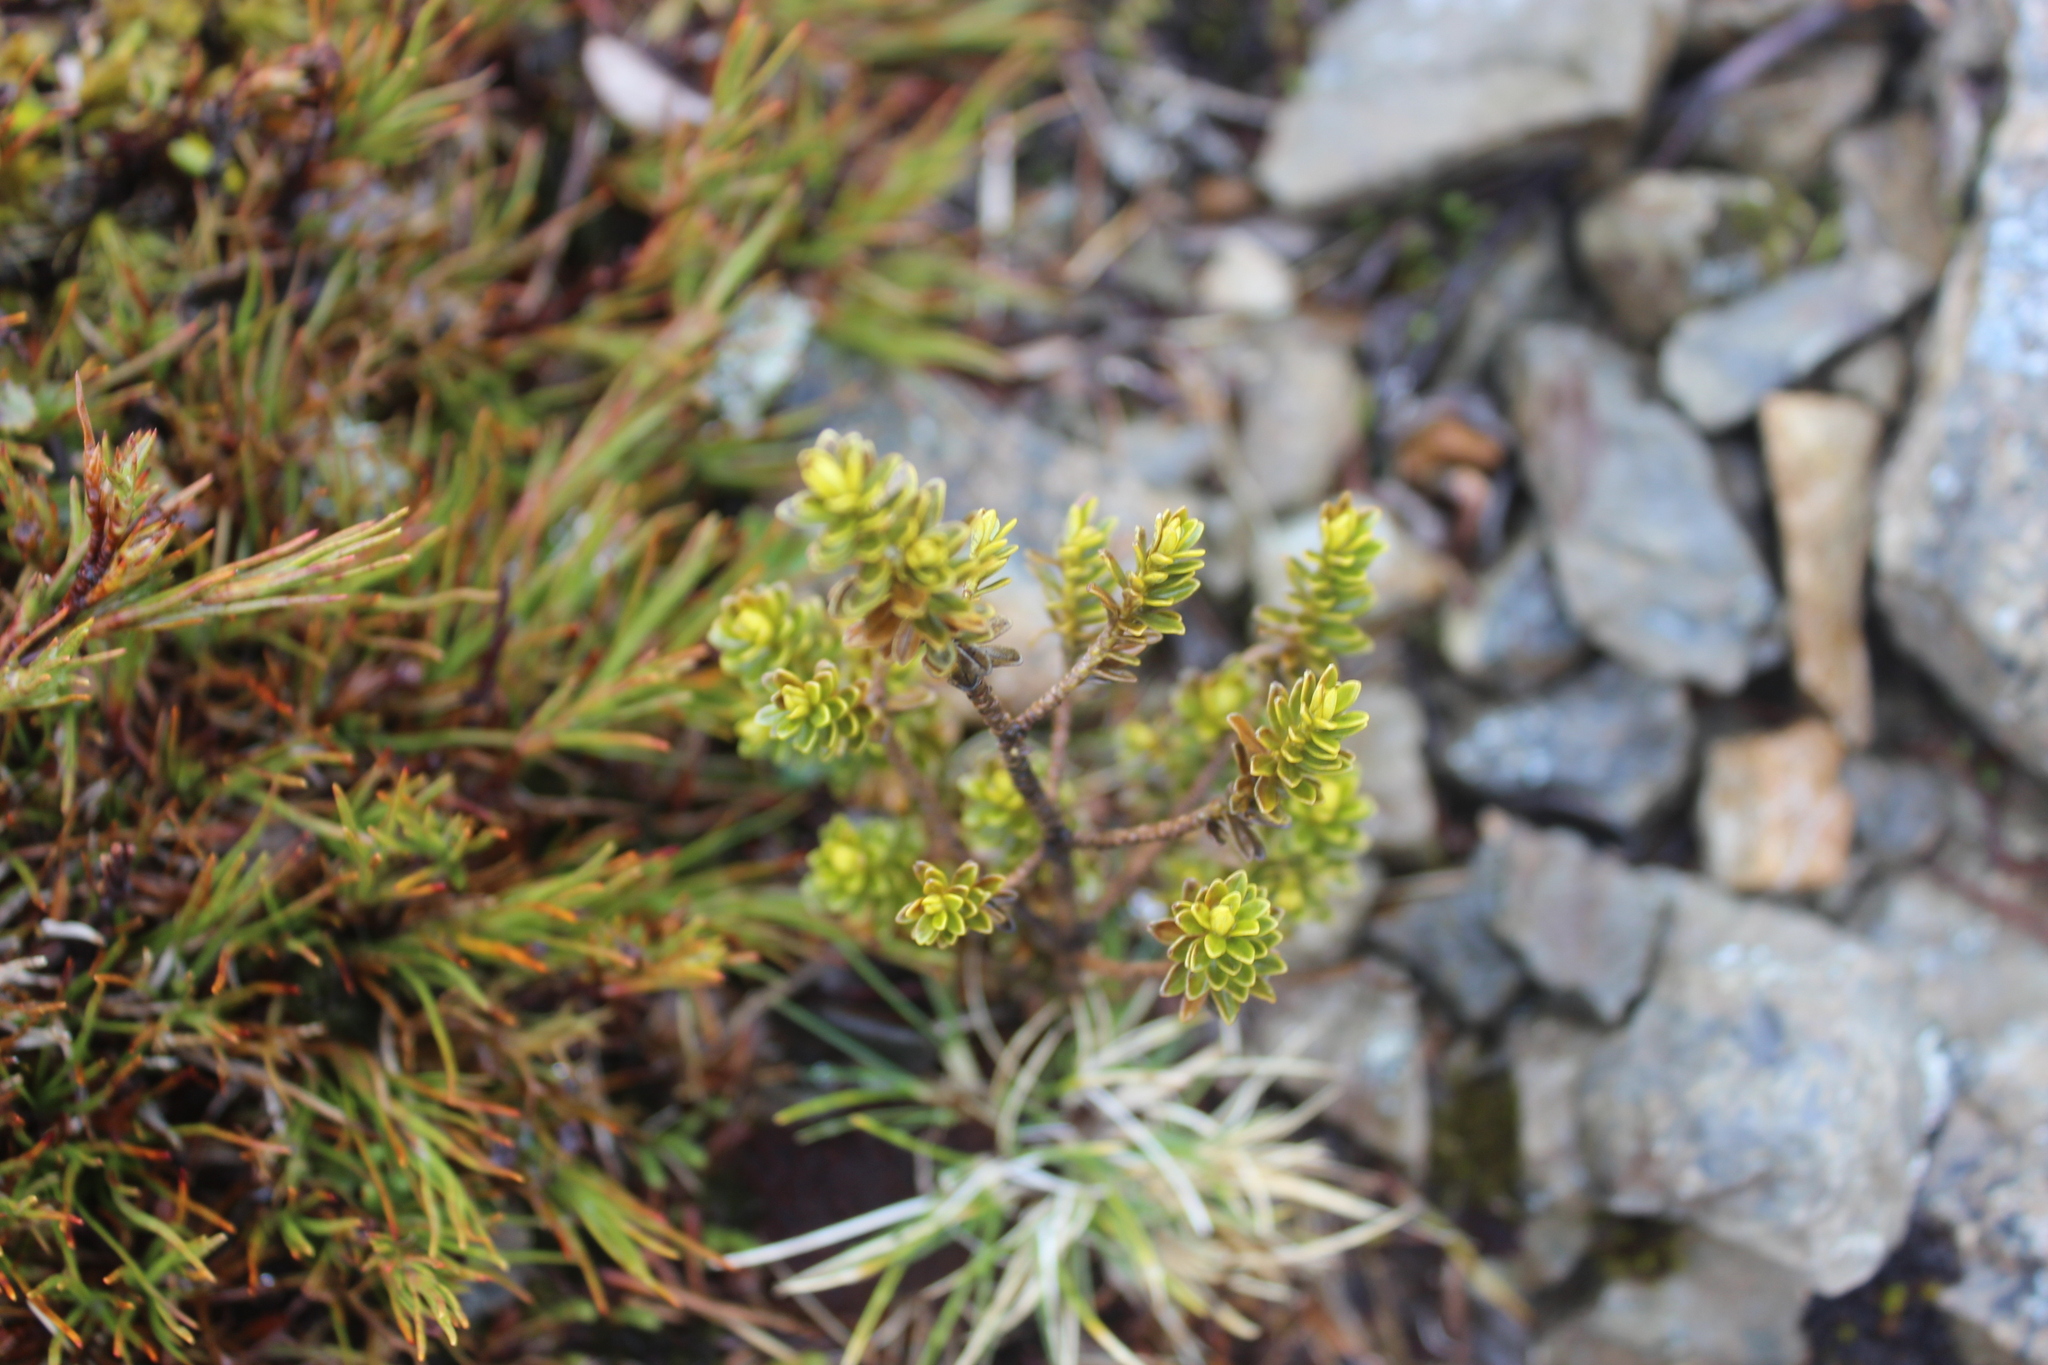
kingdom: Plantae
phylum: Tracheophyta
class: Magnoliopsida
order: Asterales
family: Asteraceae
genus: Ozothamnus
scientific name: Ozothamnus leptophyllus
